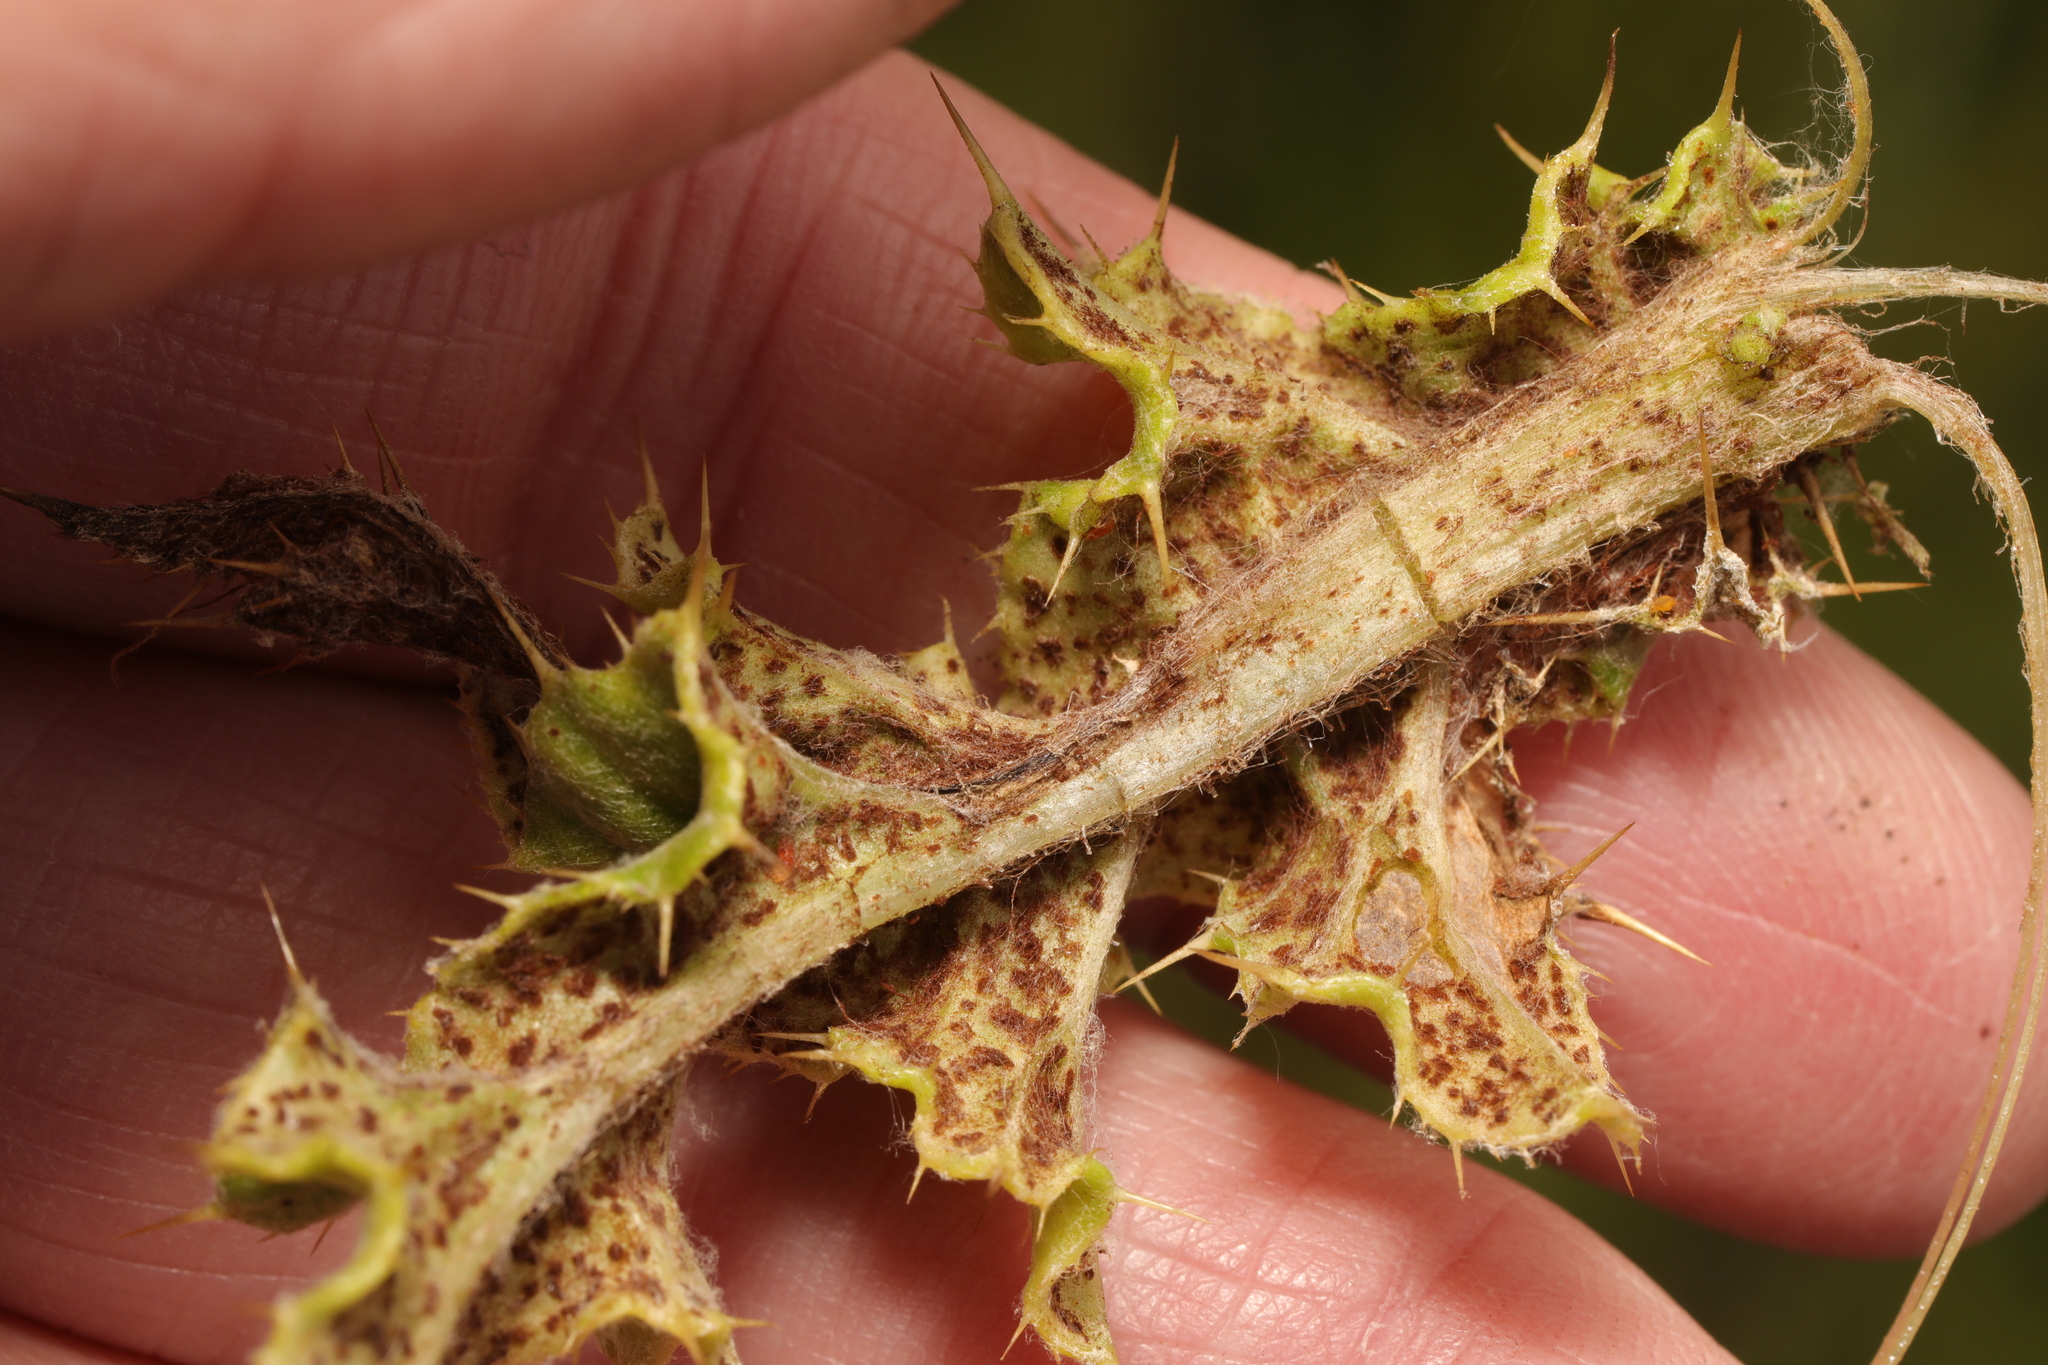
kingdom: Fungi
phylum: Basidiomycota
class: Pucciniomycetes
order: Pucciniales
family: Pucciniaceae
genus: Puccinia
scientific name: Puccinia suaveolens
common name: Thistle rust
